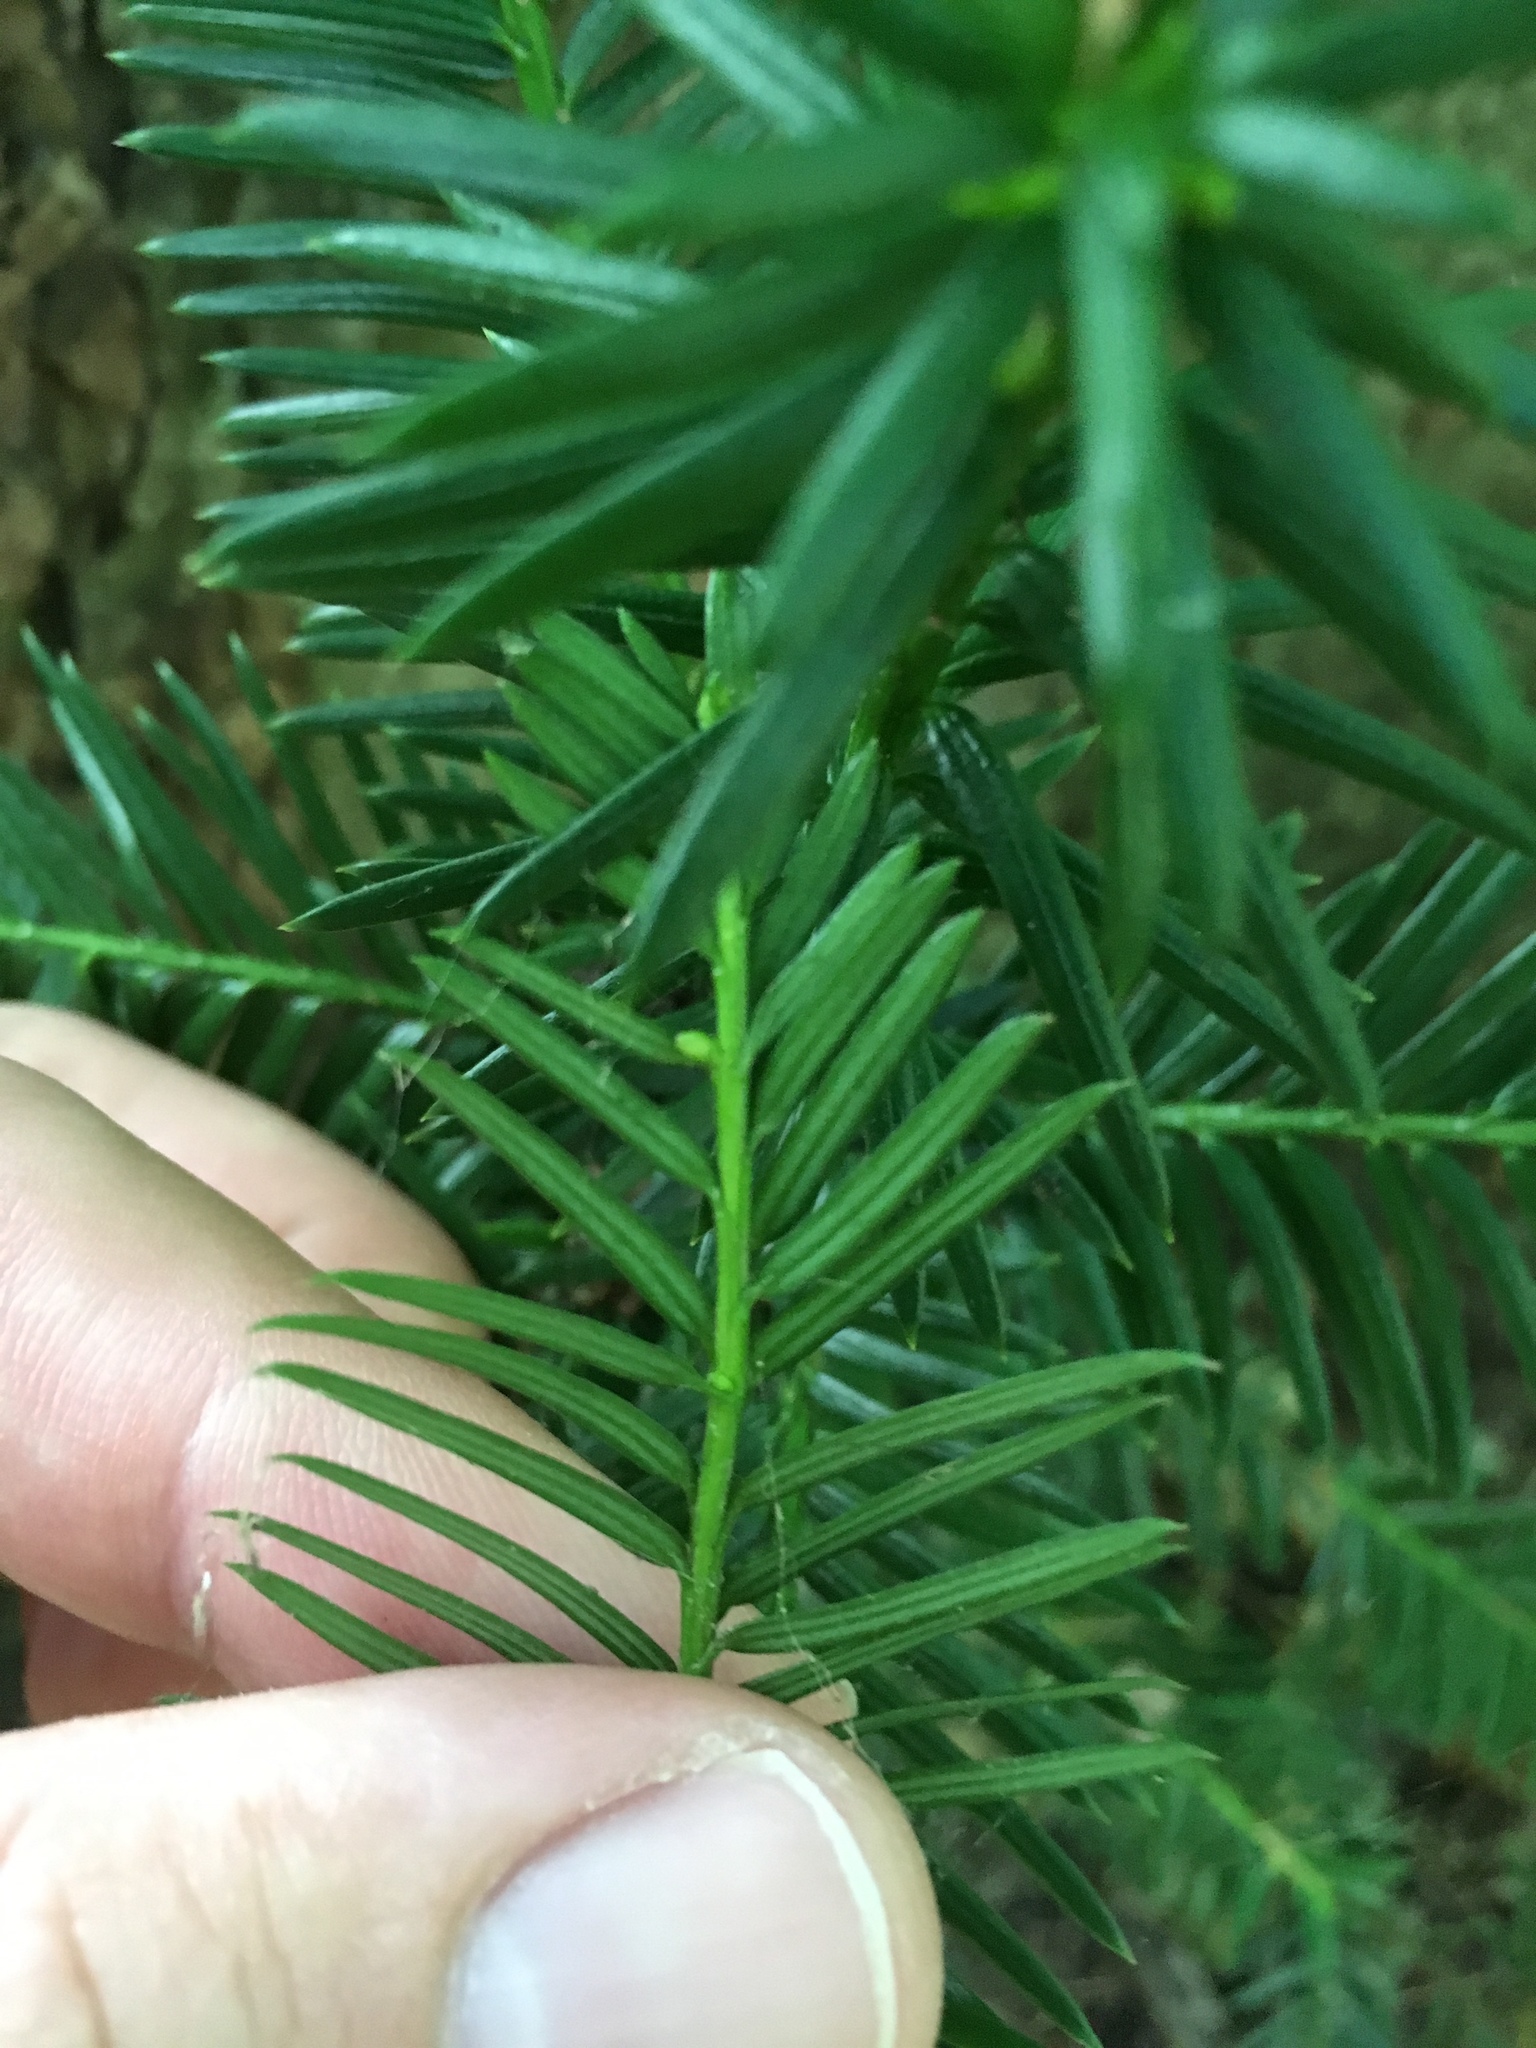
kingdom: Plantae
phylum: Tracheophyta
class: Pinopsida
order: Pinales
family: Taxaceae
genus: Taxus
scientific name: Taxus baccata
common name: Yew
